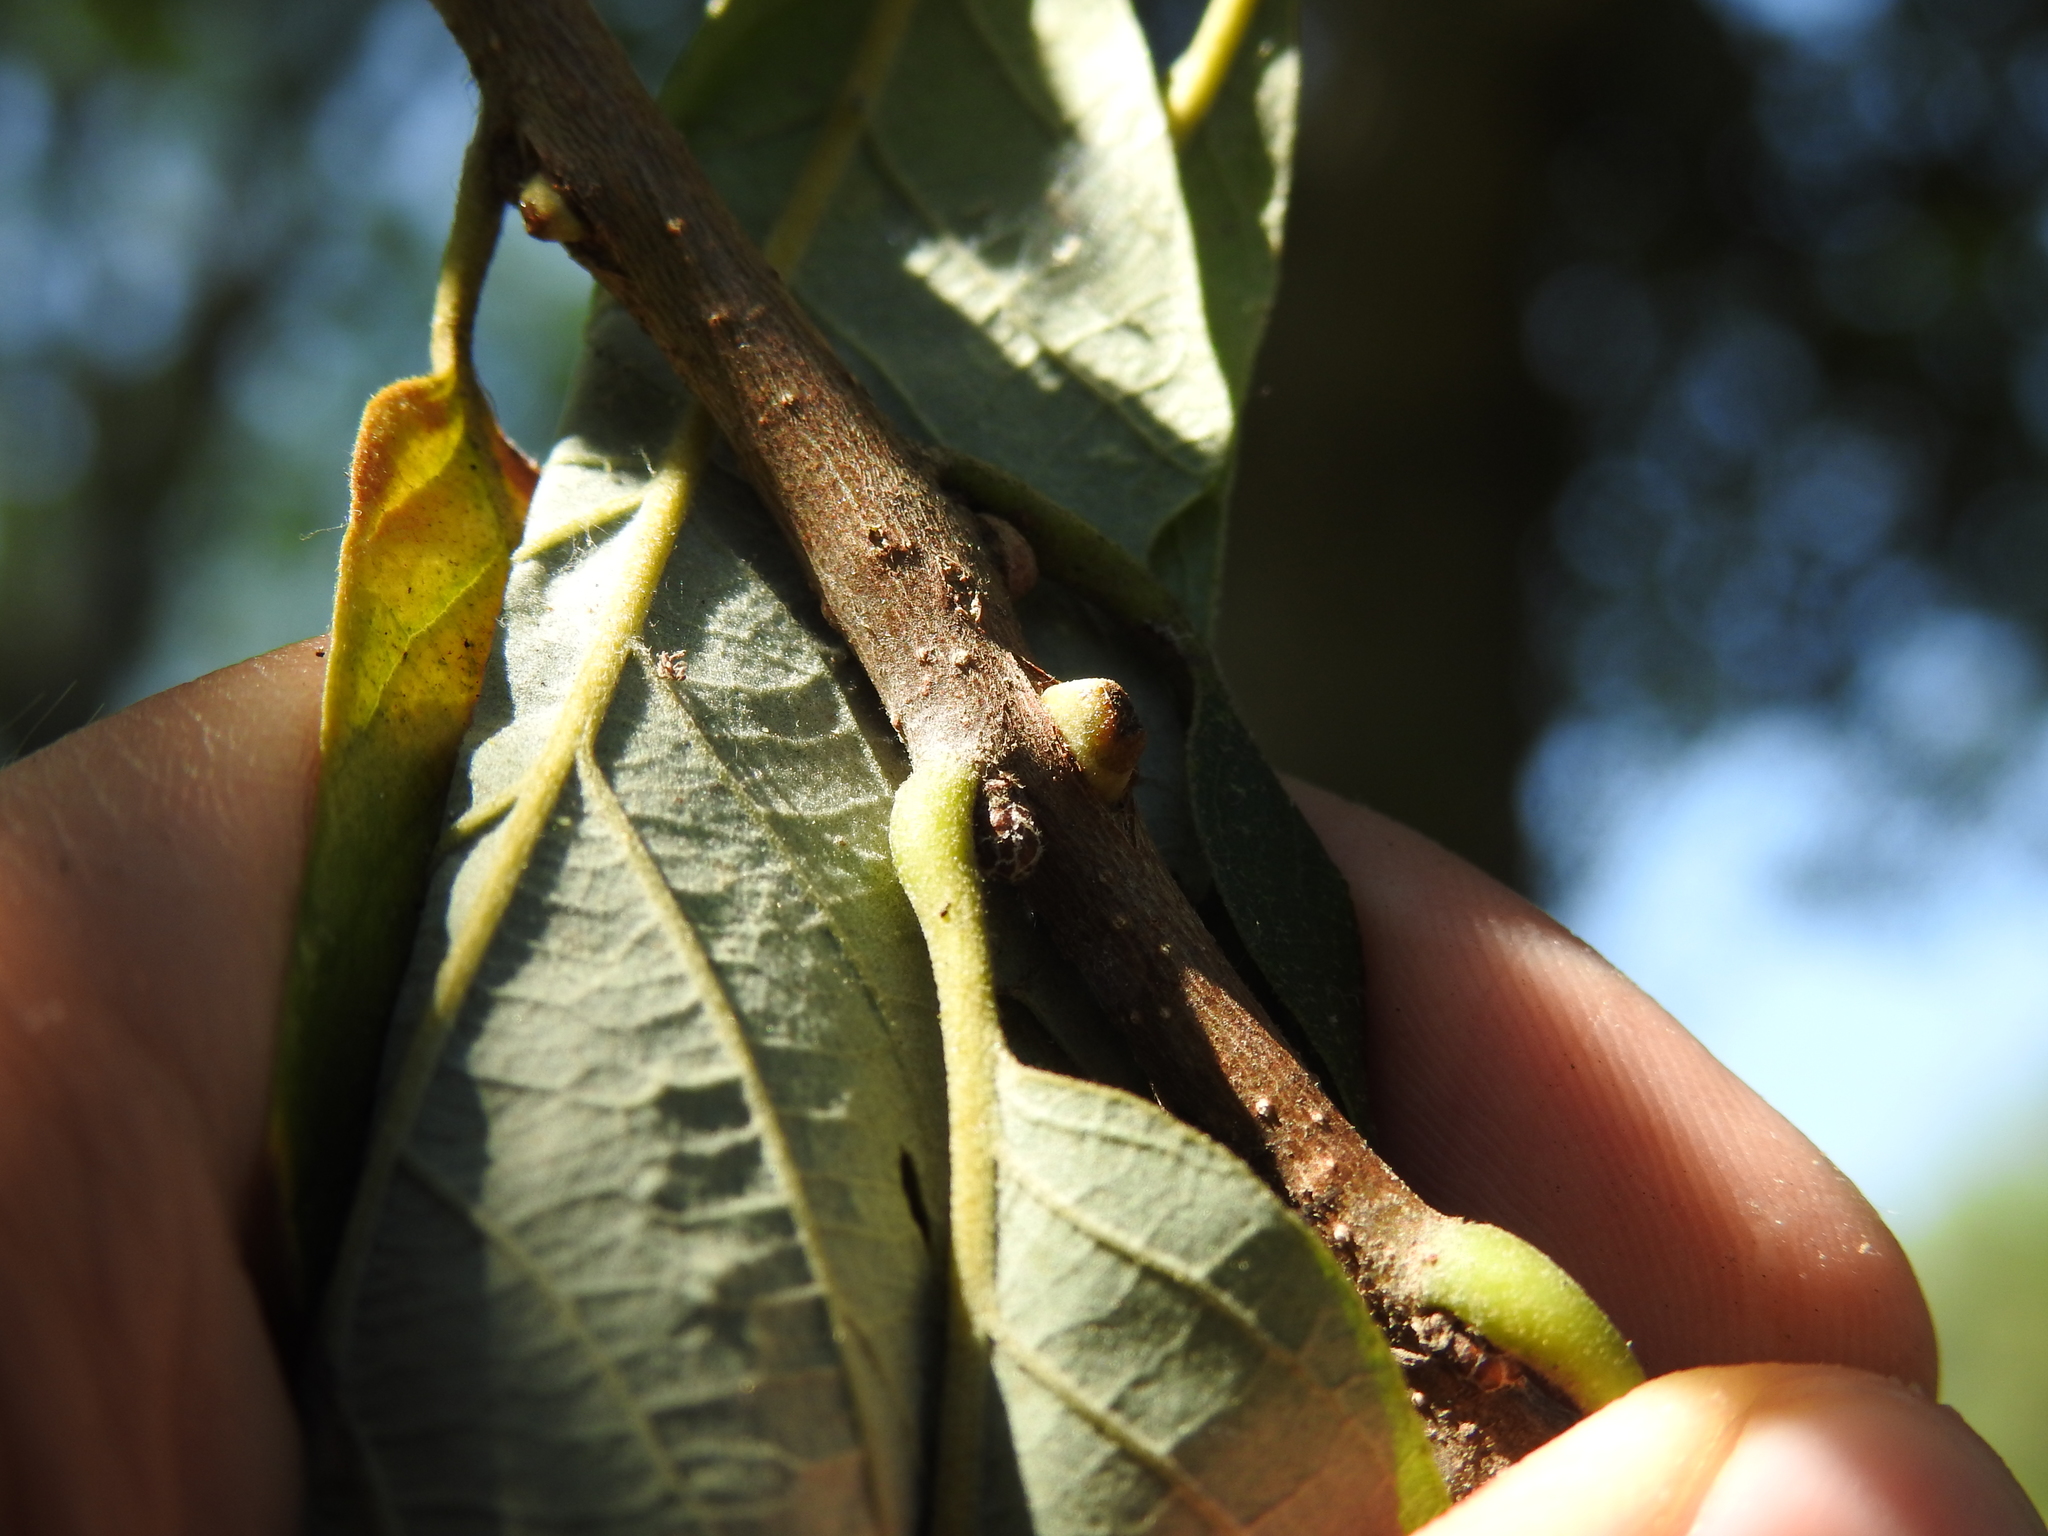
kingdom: Animalia
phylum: Arthropoda
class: Insecta
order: Hymenoptera
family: Cynipidae
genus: Disholcaspis
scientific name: Disholcaspis
